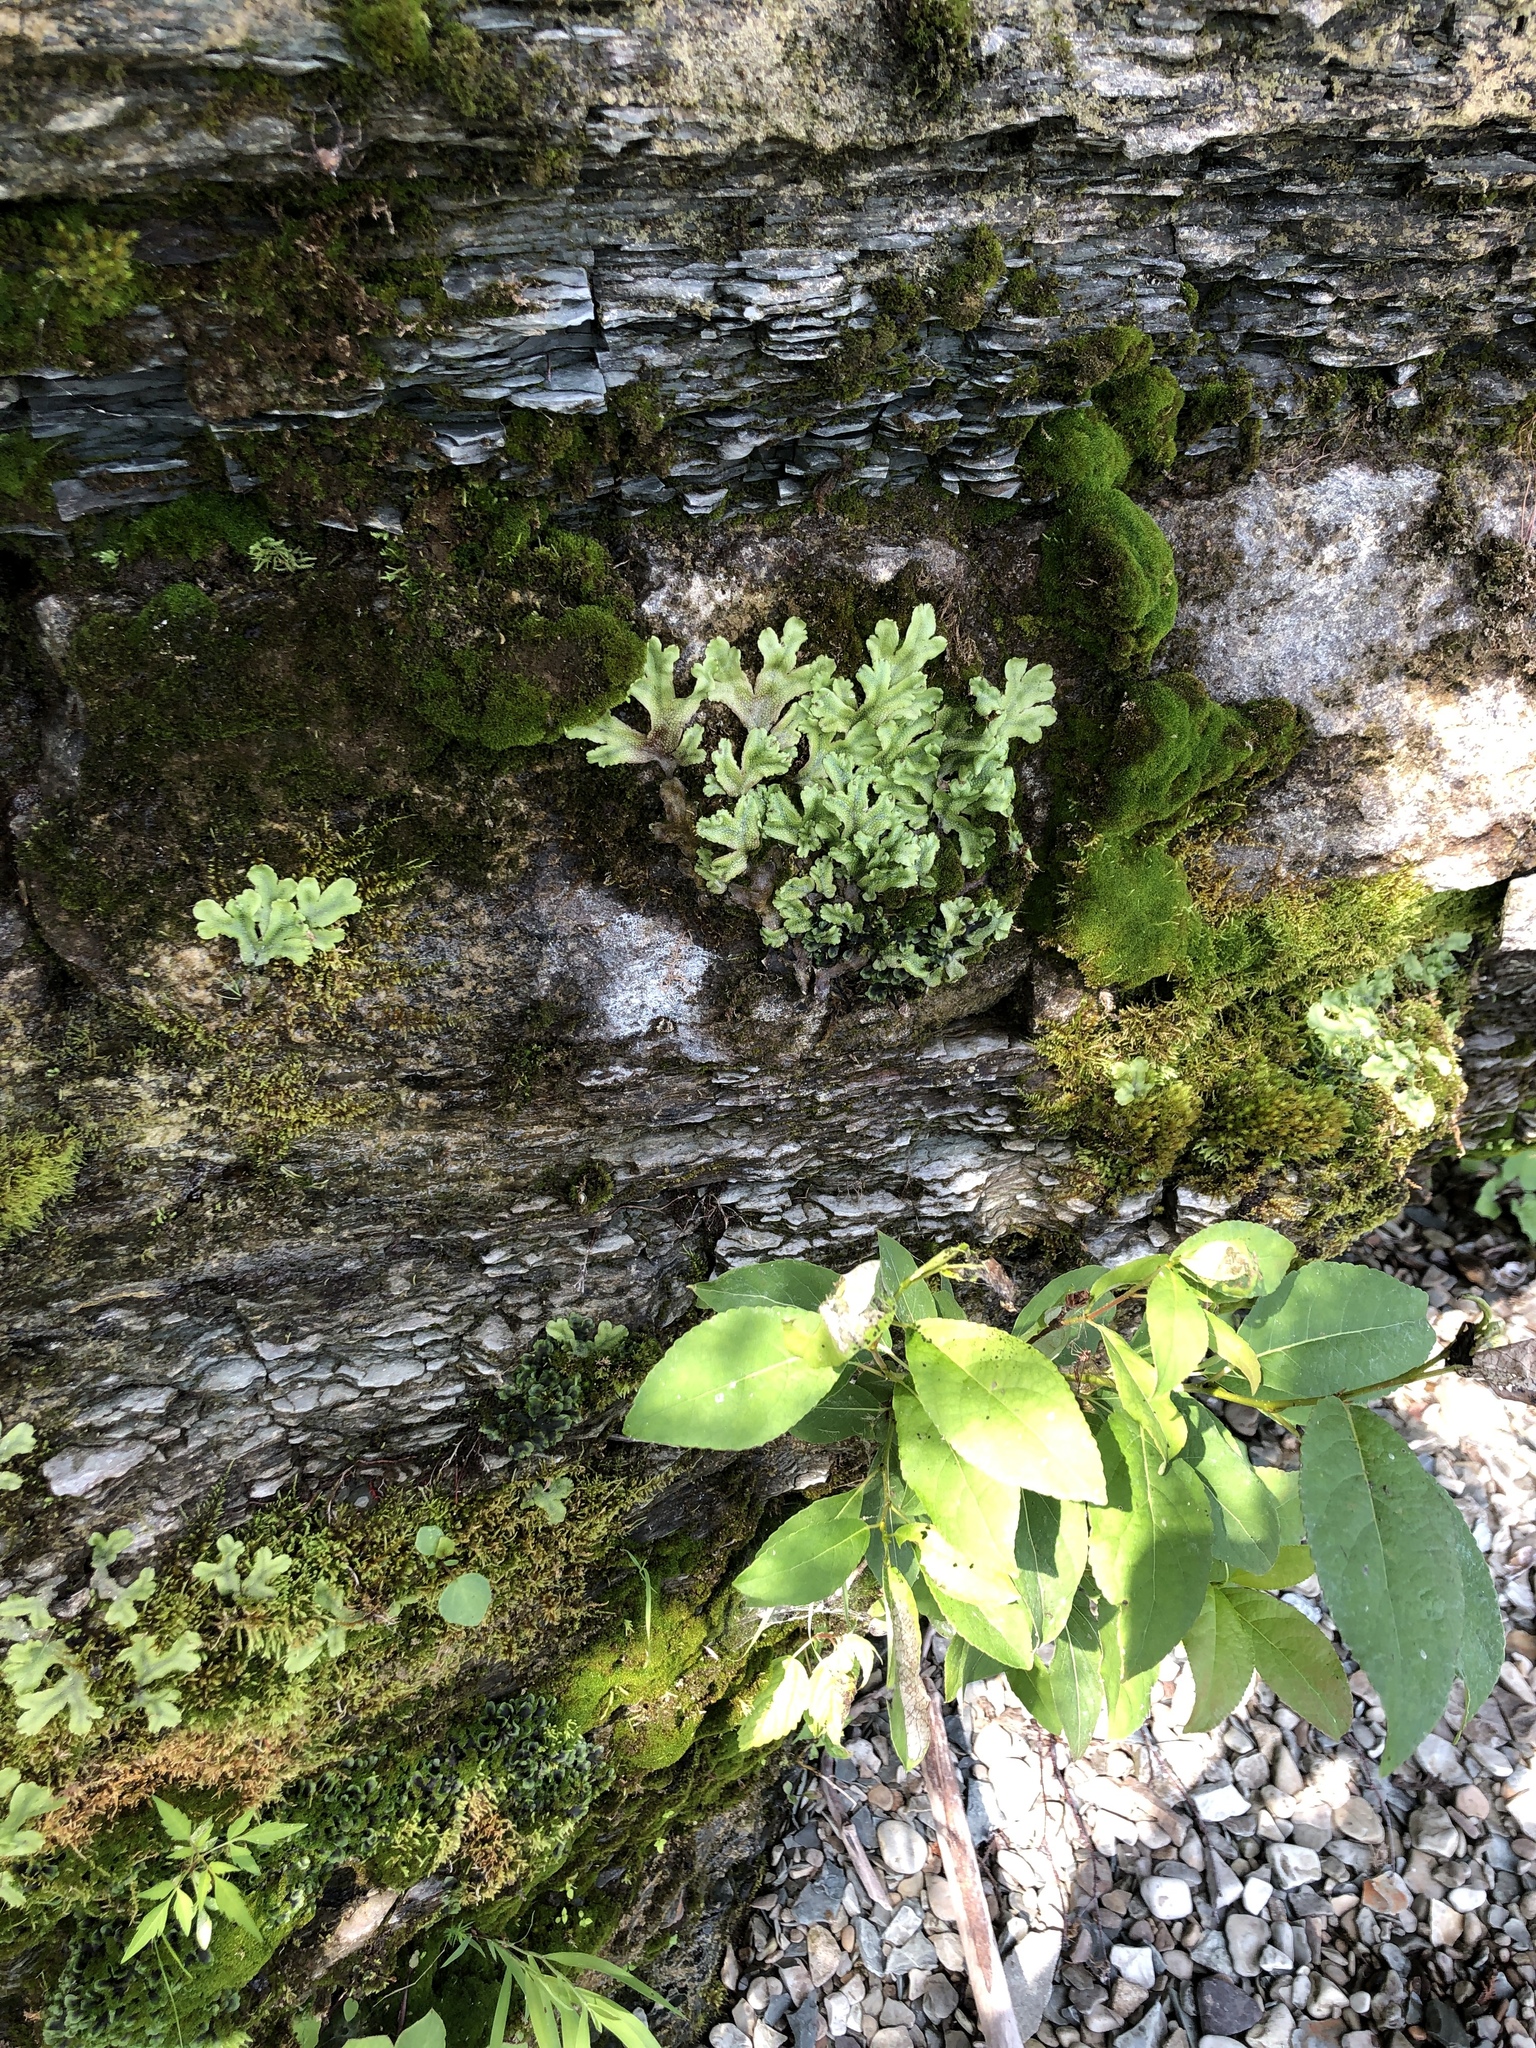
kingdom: Plantae
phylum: Marchantiophyta
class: Marchantiopsida
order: Marchantiales
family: Conocephalaceae
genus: Conocephalum
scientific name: Conocephalum salebrosum
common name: Cat-tongue liverwort
